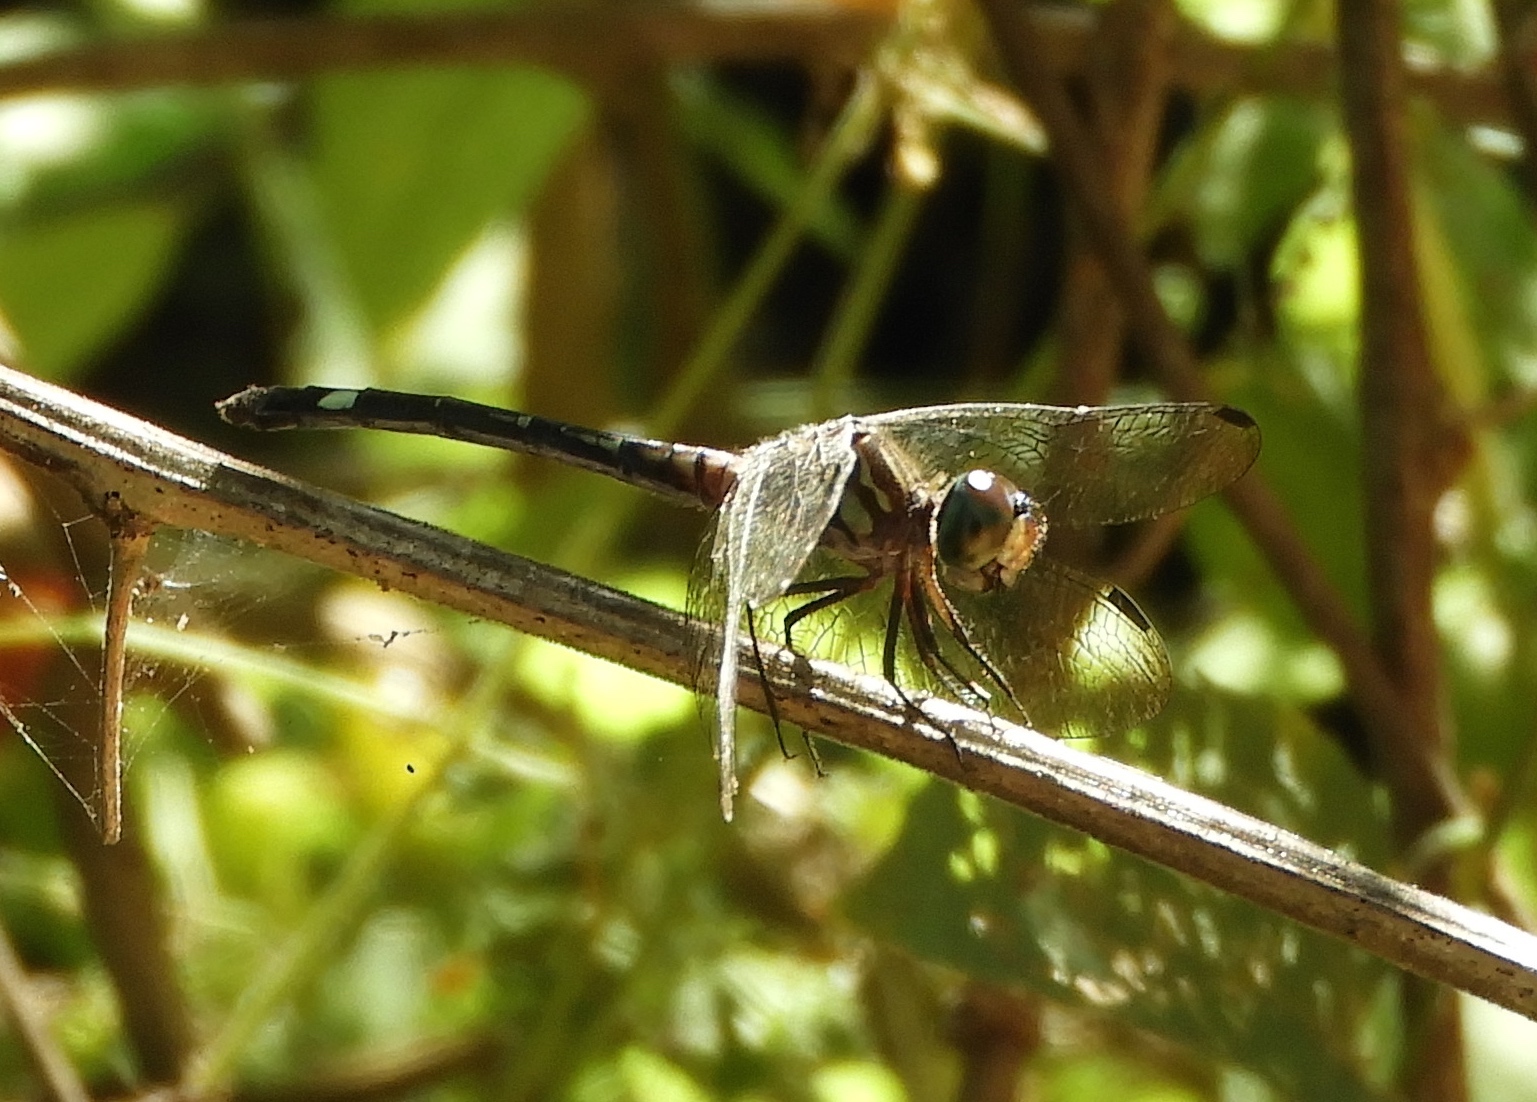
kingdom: Animalia
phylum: Arthropoda
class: Insecta
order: Odonata
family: Libellulidae
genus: Micrathyria
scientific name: Micrathyria
